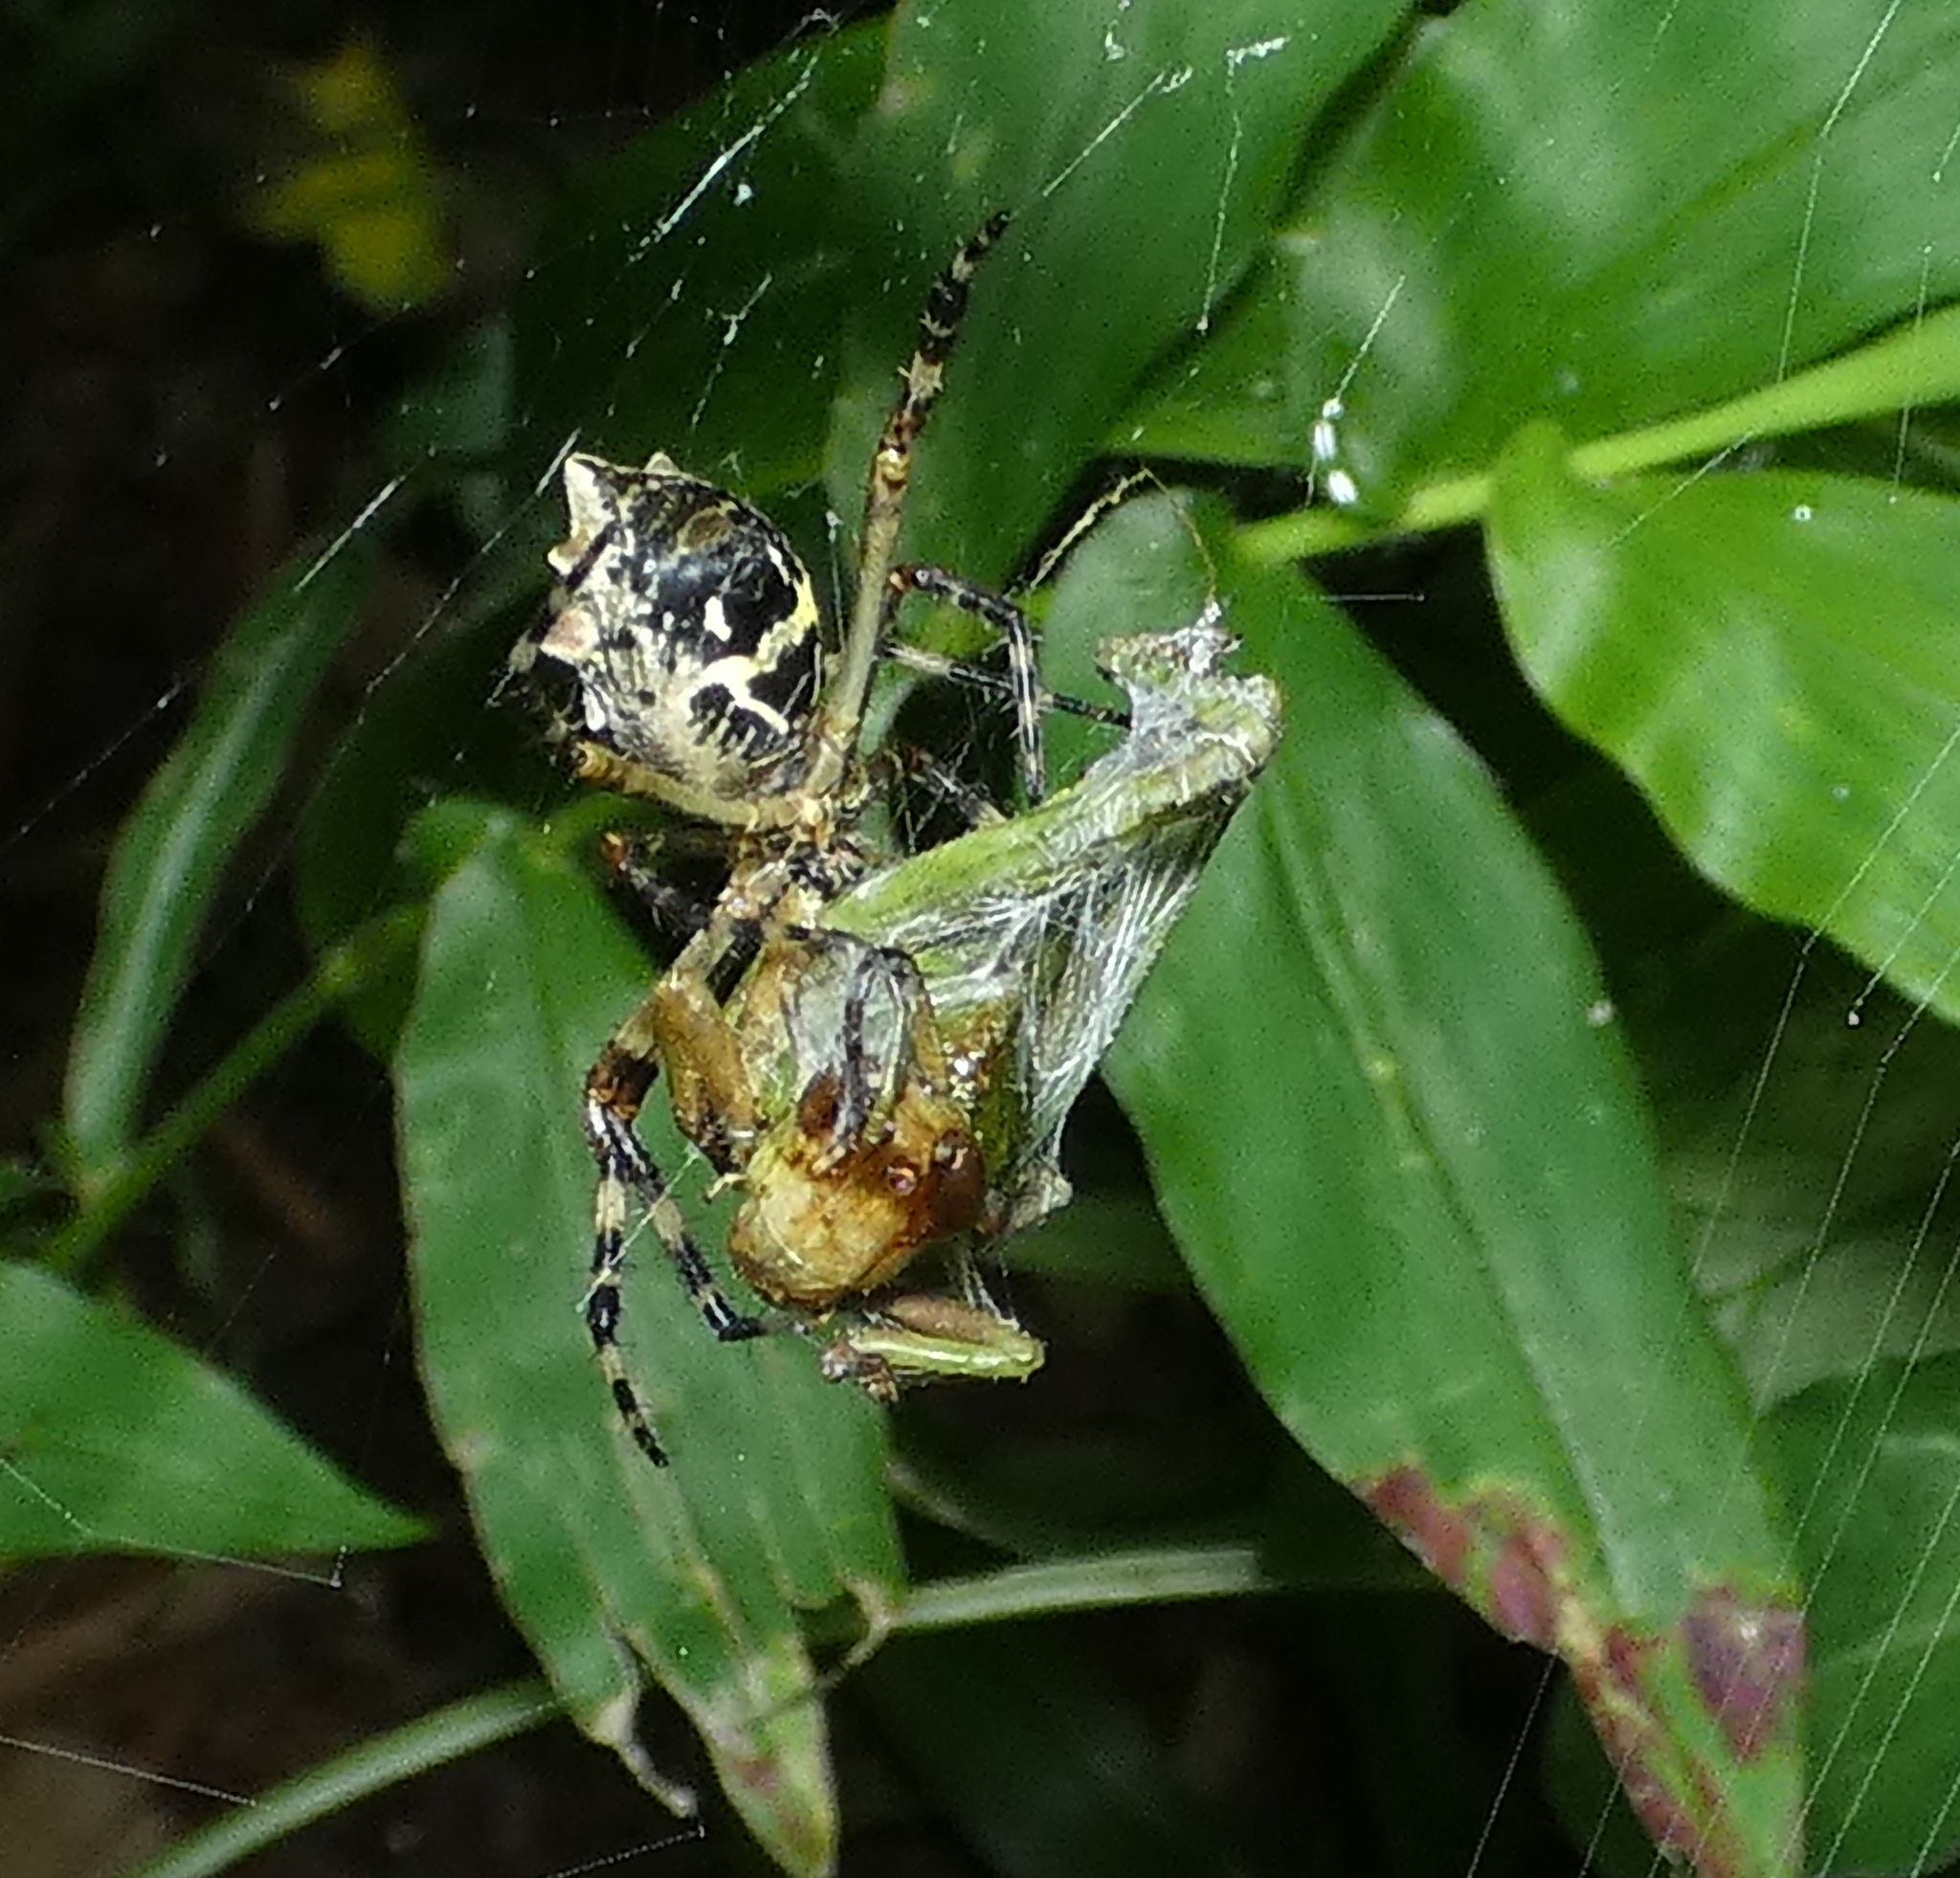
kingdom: Animalia
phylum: Arthropoda
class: Arachnida
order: Araneae
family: Araneidae
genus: Argiope
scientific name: Argiope argentata
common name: Orb weavers
